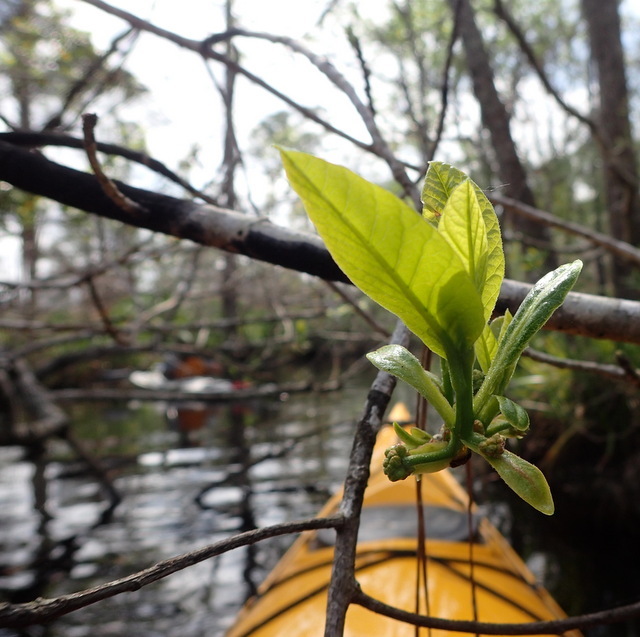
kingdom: Plantae
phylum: Tracheophyta
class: Magnoliopsida
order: Cornales
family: Nyssaceae
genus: Nyssa
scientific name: Nyssa ogeche
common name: Ogeechee tupelo
